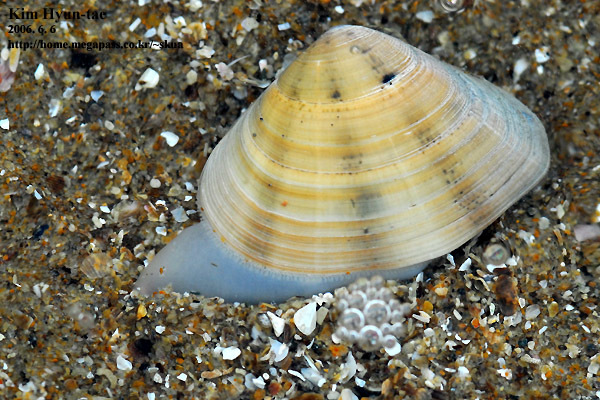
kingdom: Animalia
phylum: Mollusca
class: Bivalvia
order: Venerida
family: Veneridae
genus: Macridiscus
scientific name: Macridiscus multifarius
